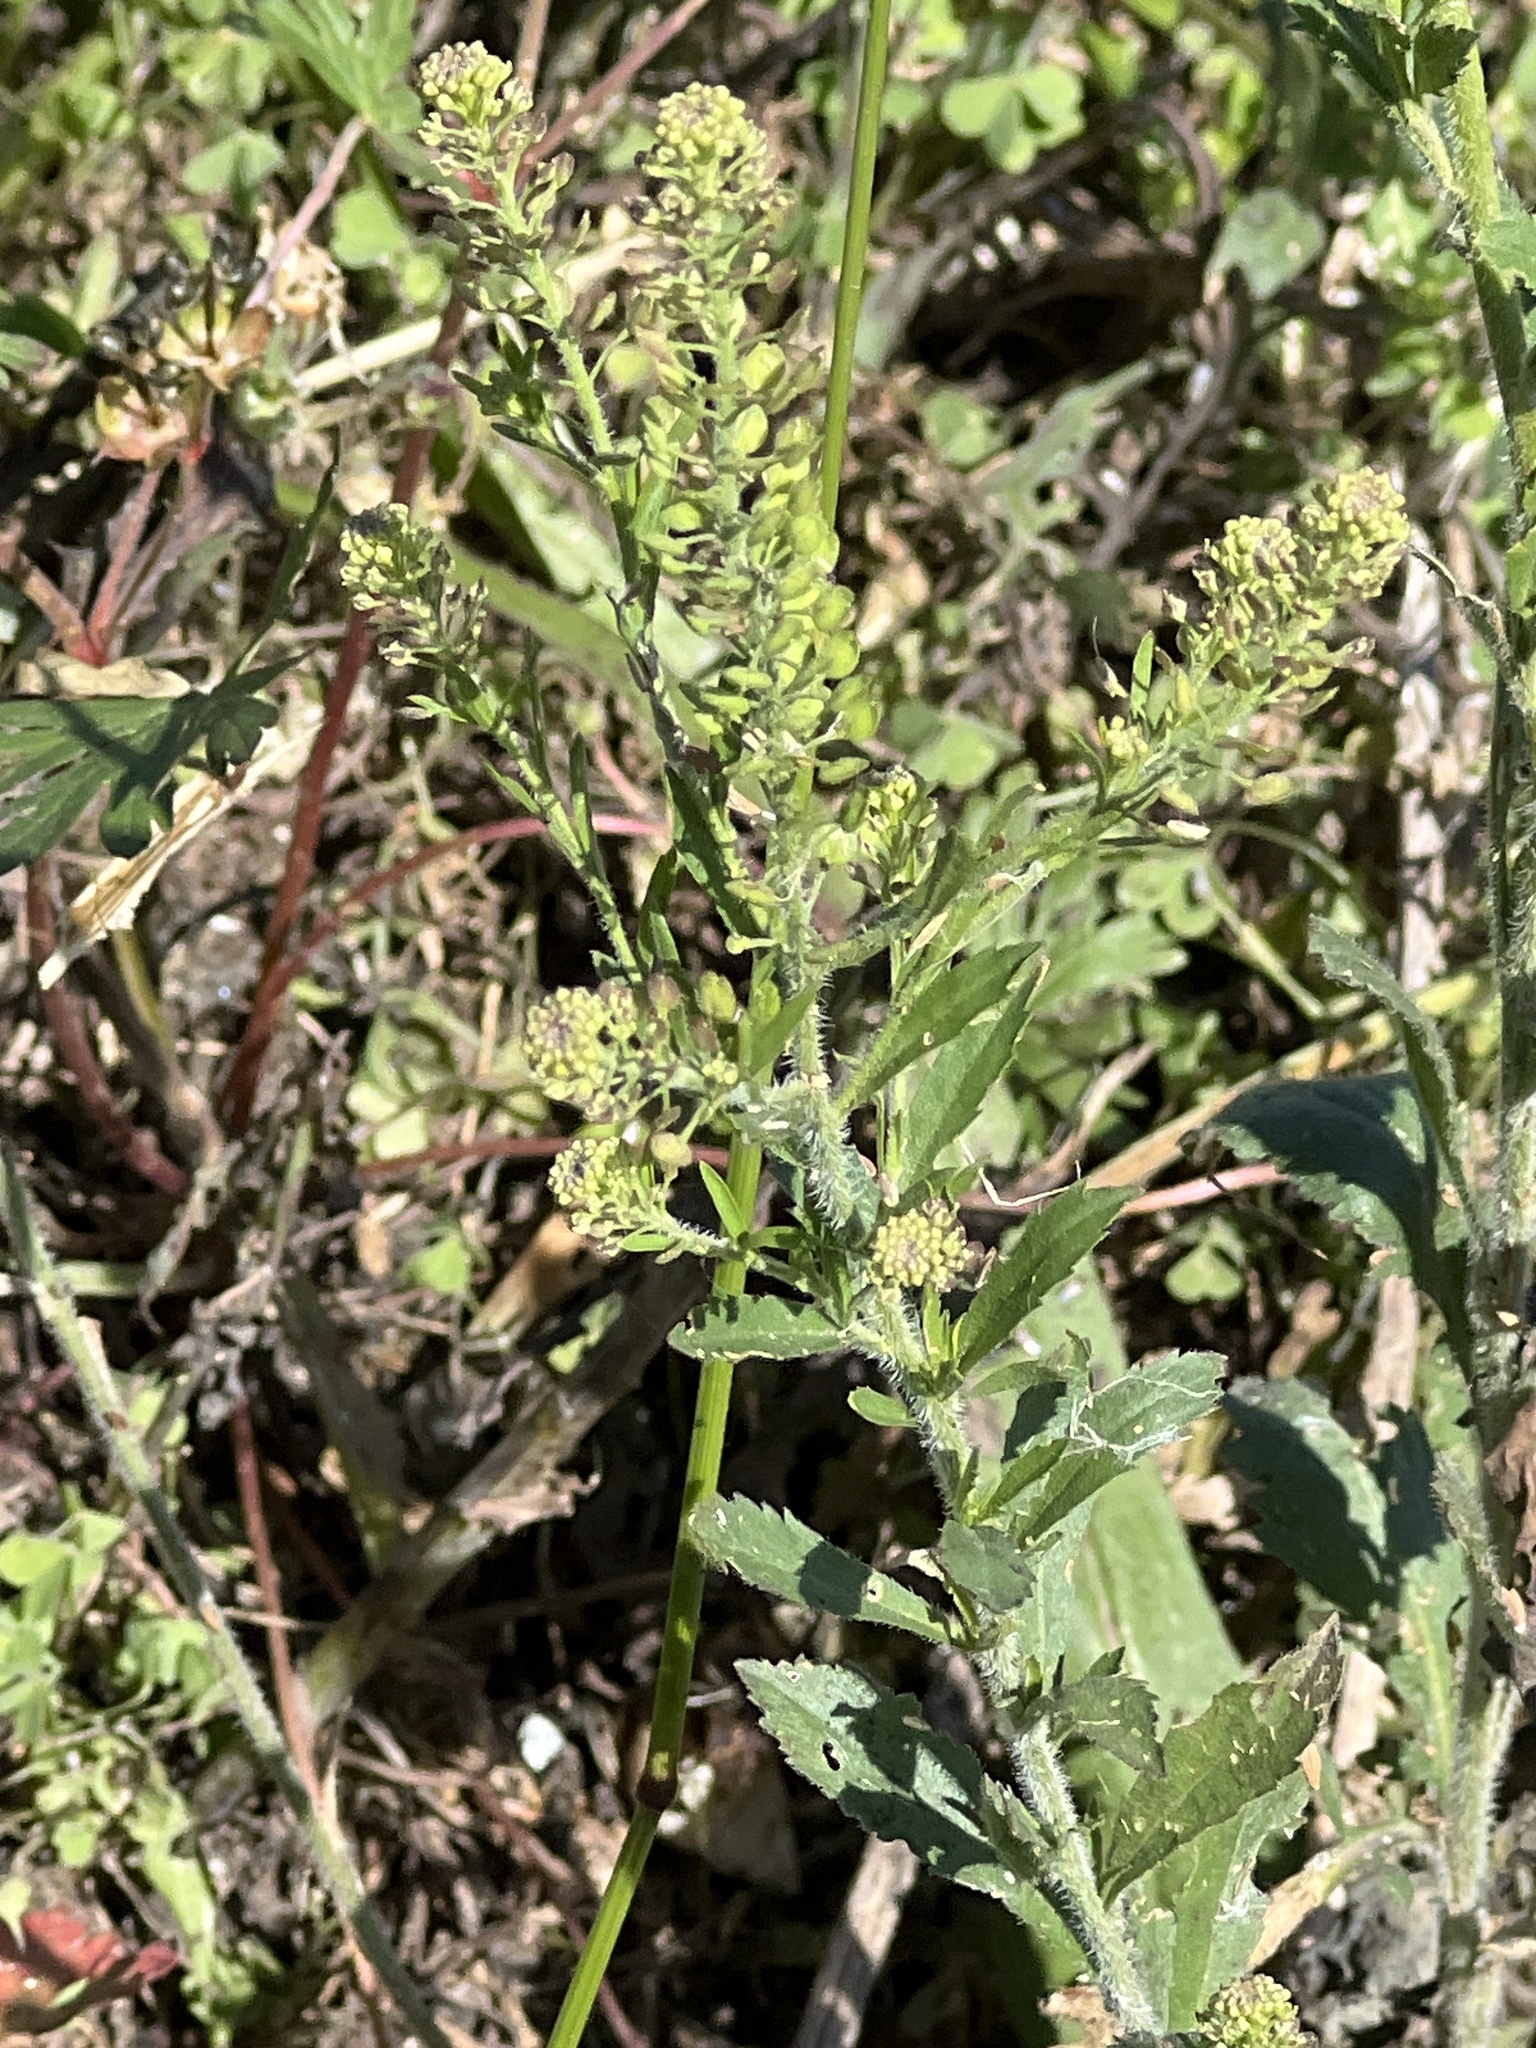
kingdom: Plantae
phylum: Tracheophyta
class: Magnoliopsida
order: Brassicales
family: Brassicaceae
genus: Lepidium
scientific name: Lepidium austrinum
